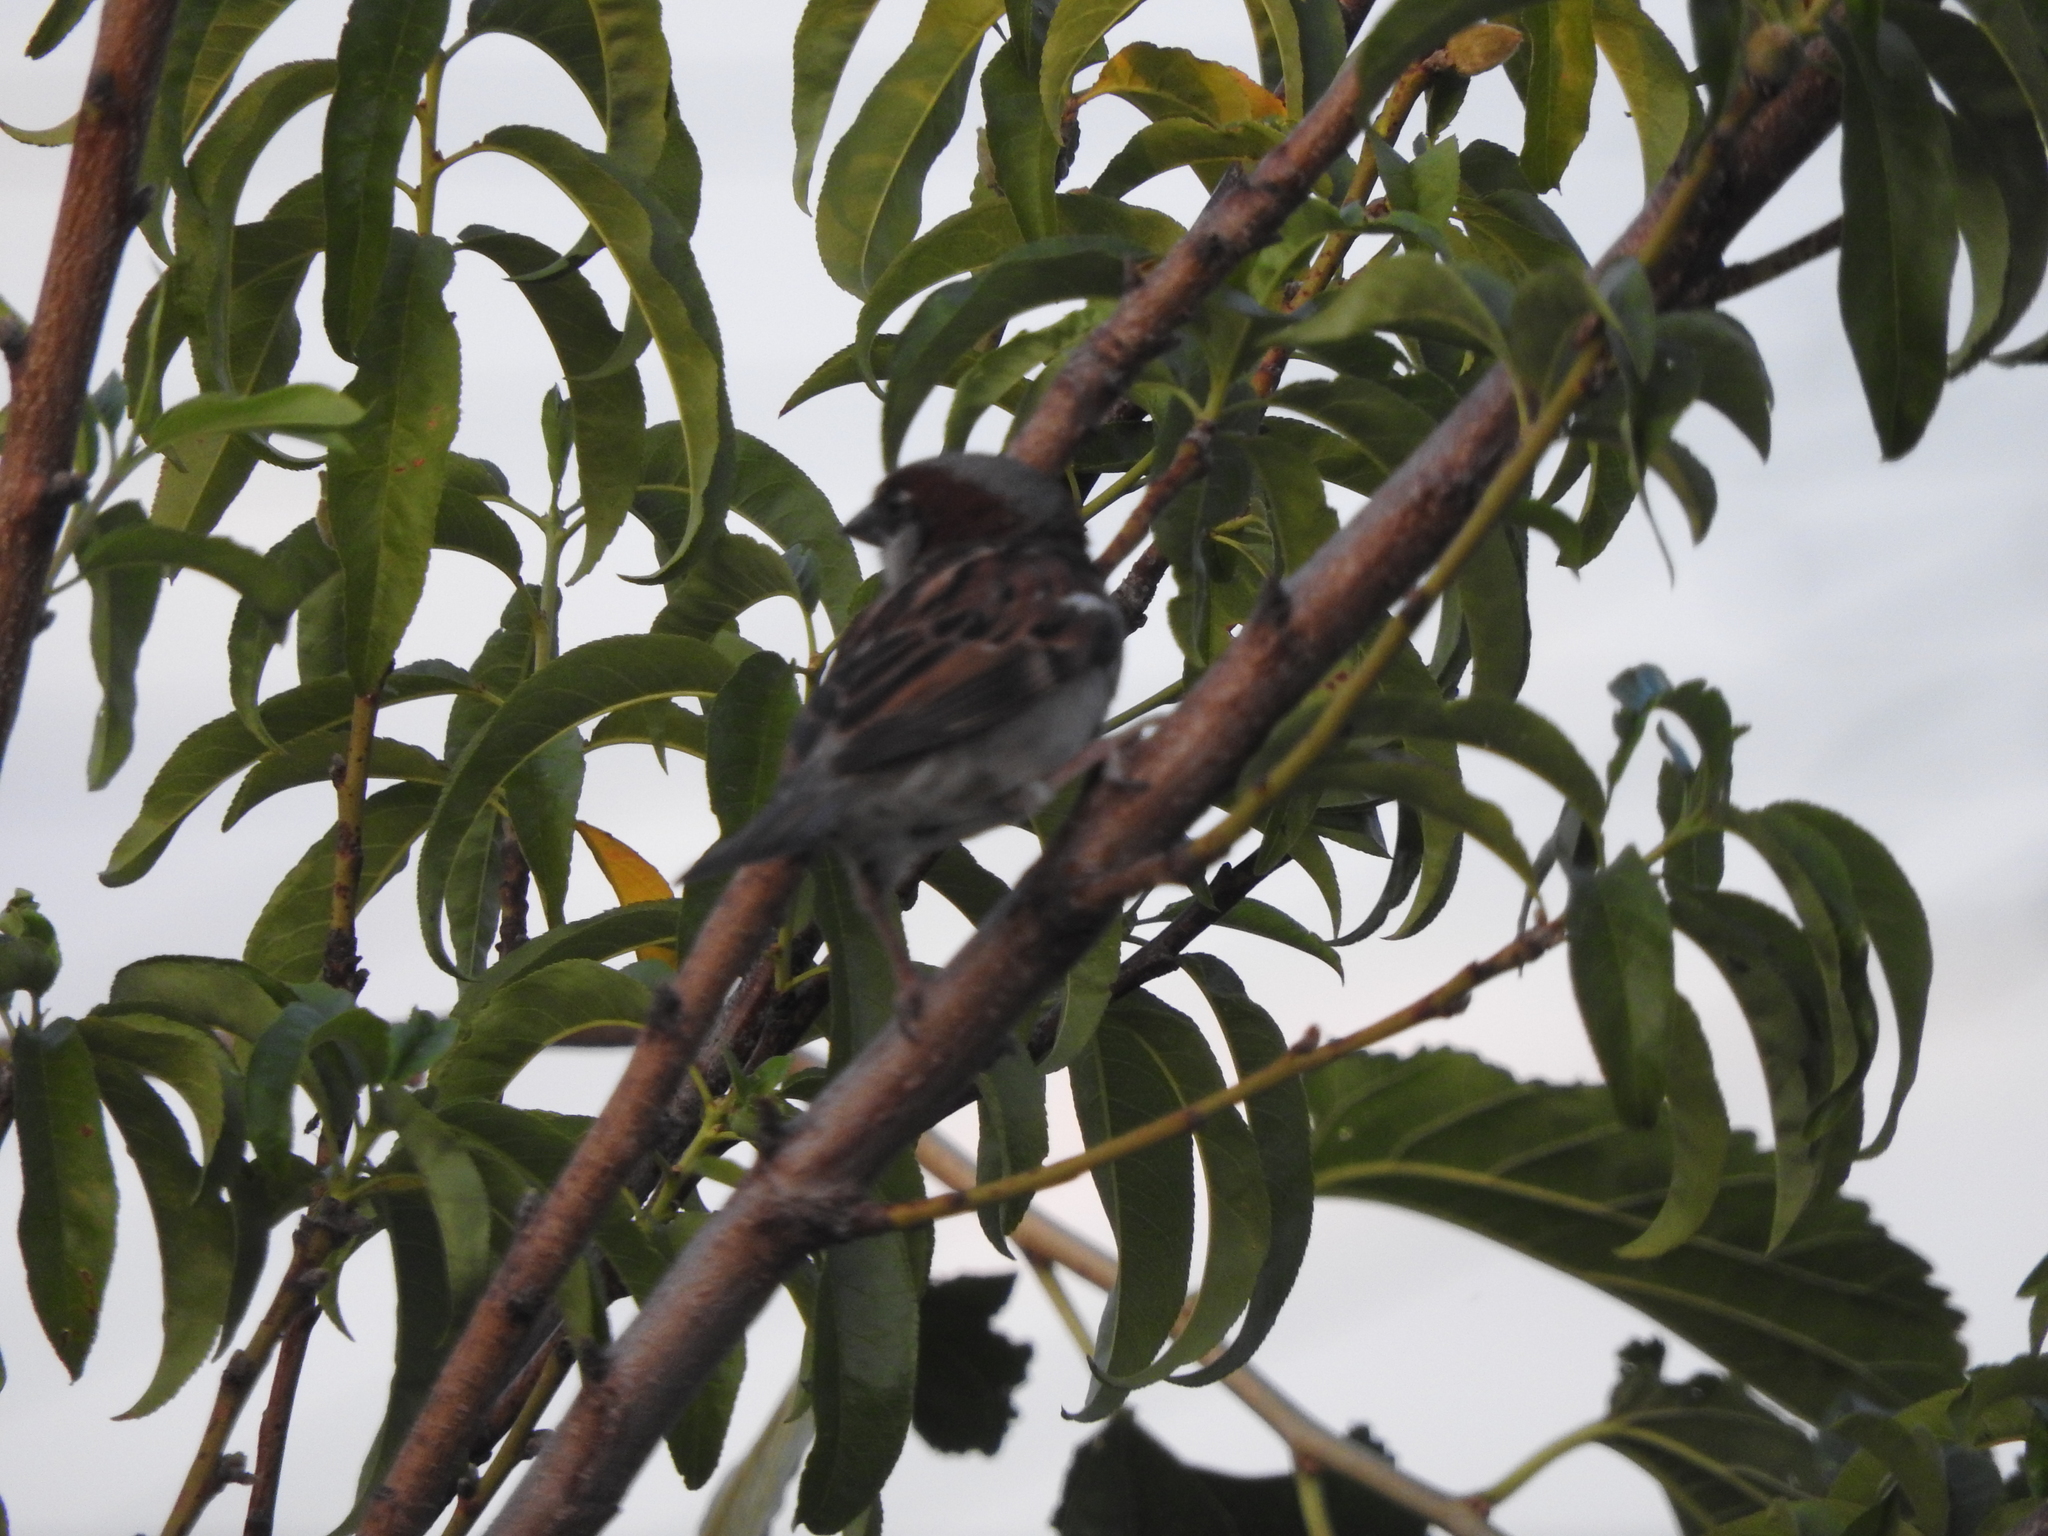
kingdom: Animalia
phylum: Chordata
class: Aves
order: Passeriformes
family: Passeridae
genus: Passer
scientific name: Passer domesticus
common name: House sparrow
